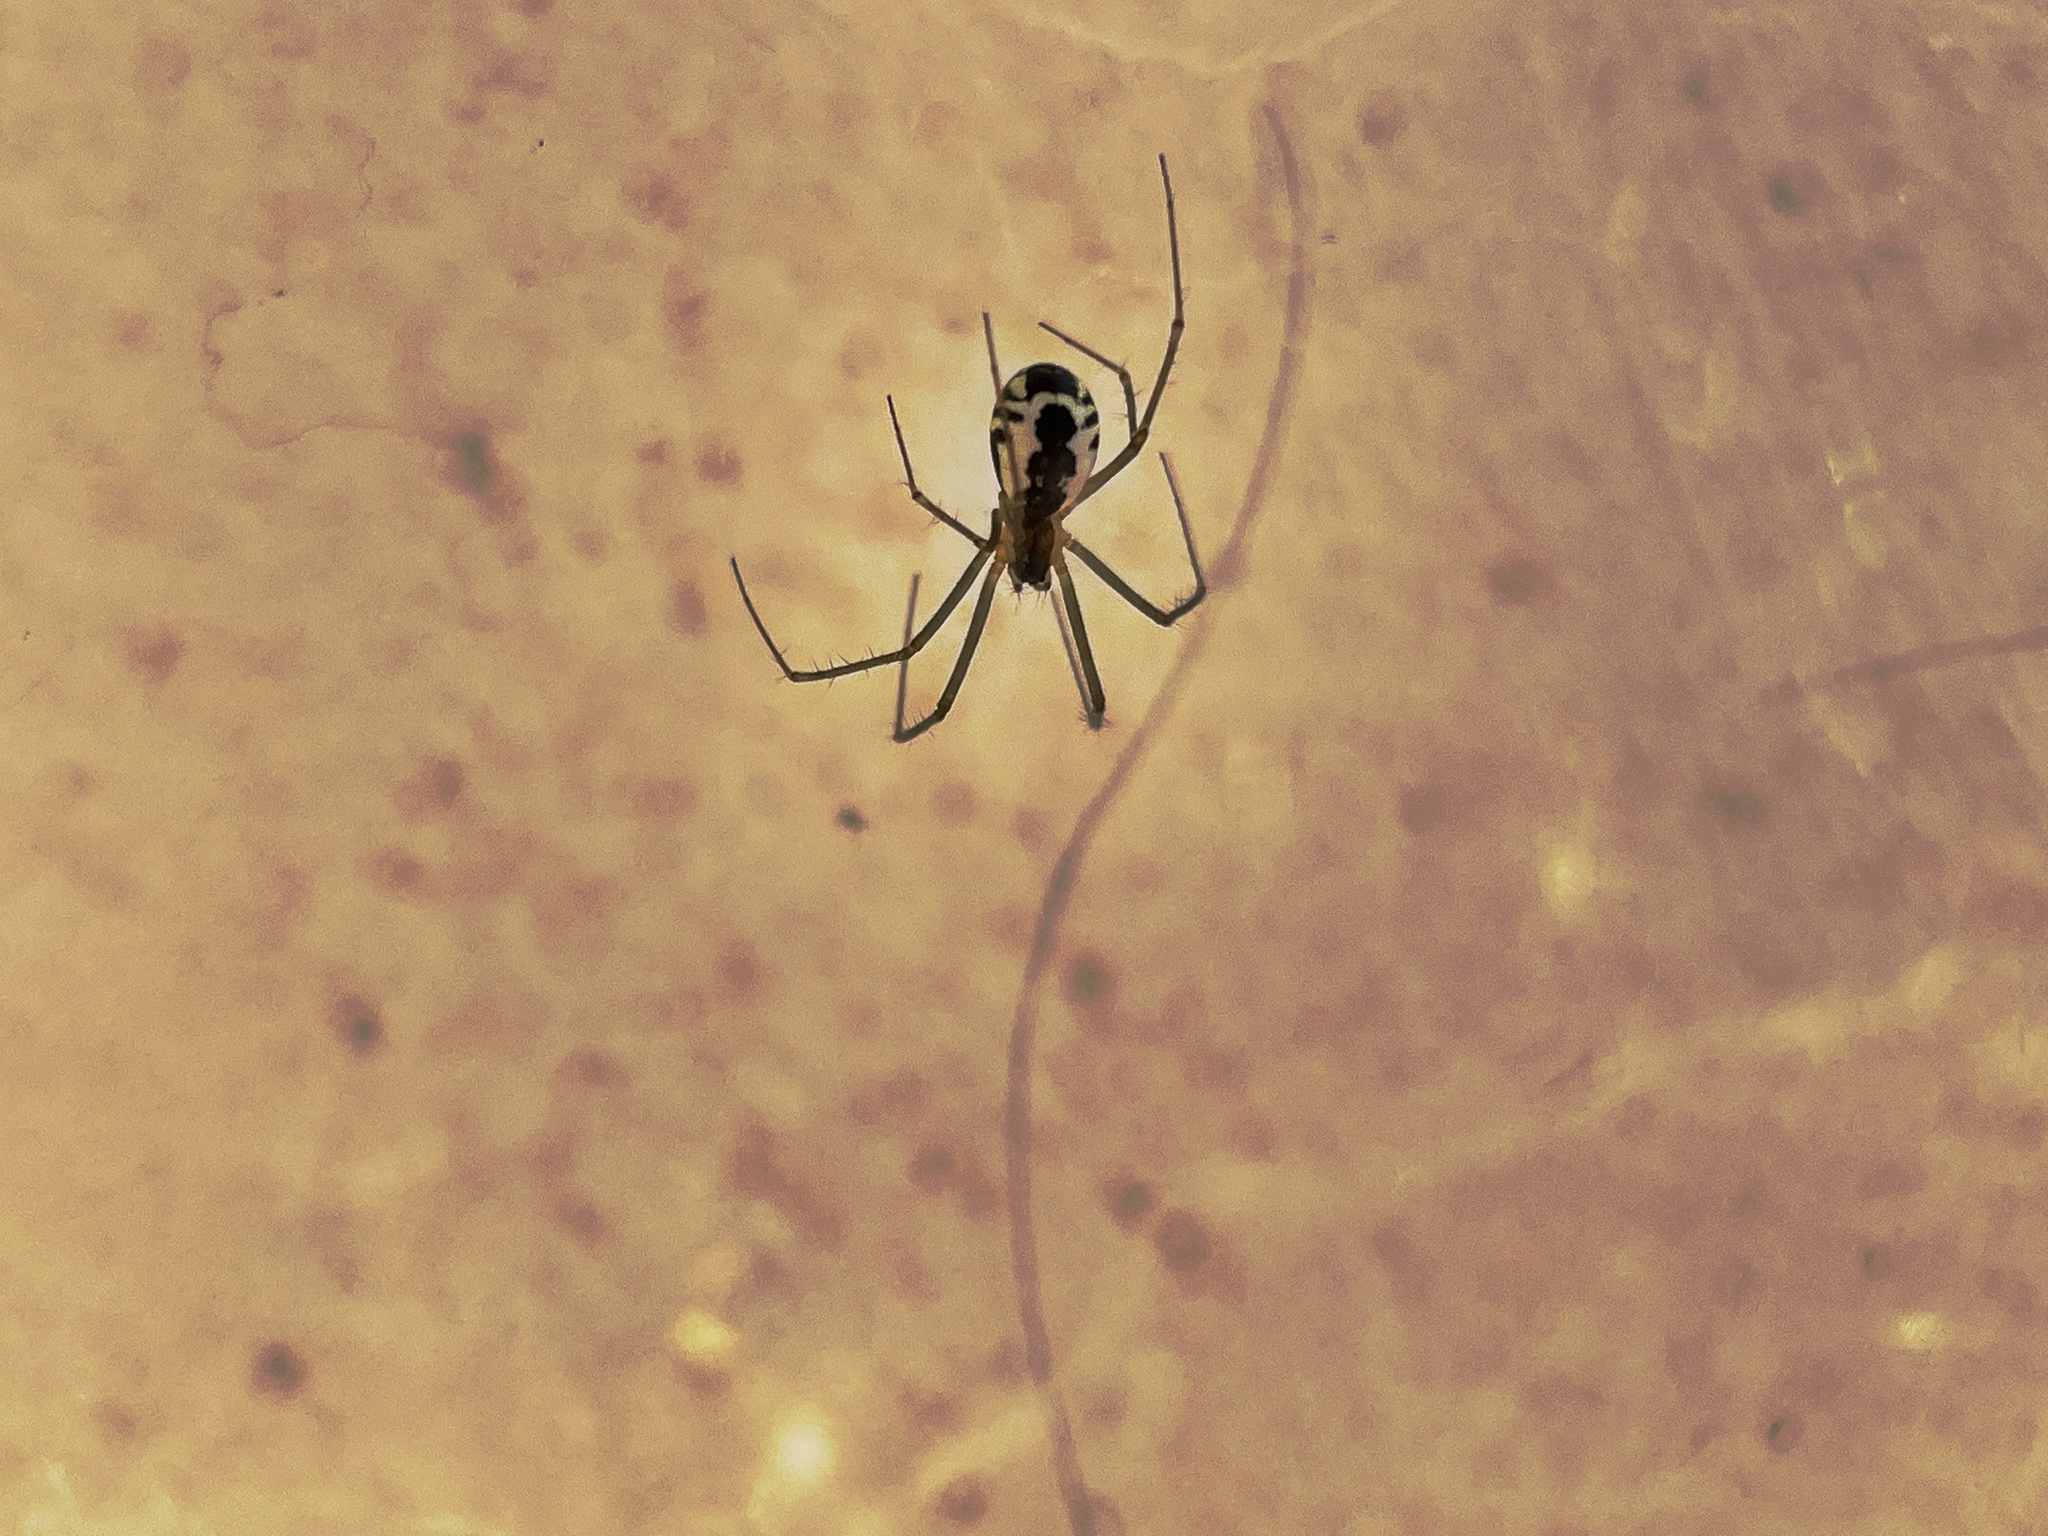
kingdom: Animalia
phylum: Arthropoda
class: Arachnida
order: Araneae
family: Linyphiidae
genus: Neriene
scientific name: Neriene radiata
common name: Filmy dome spider
